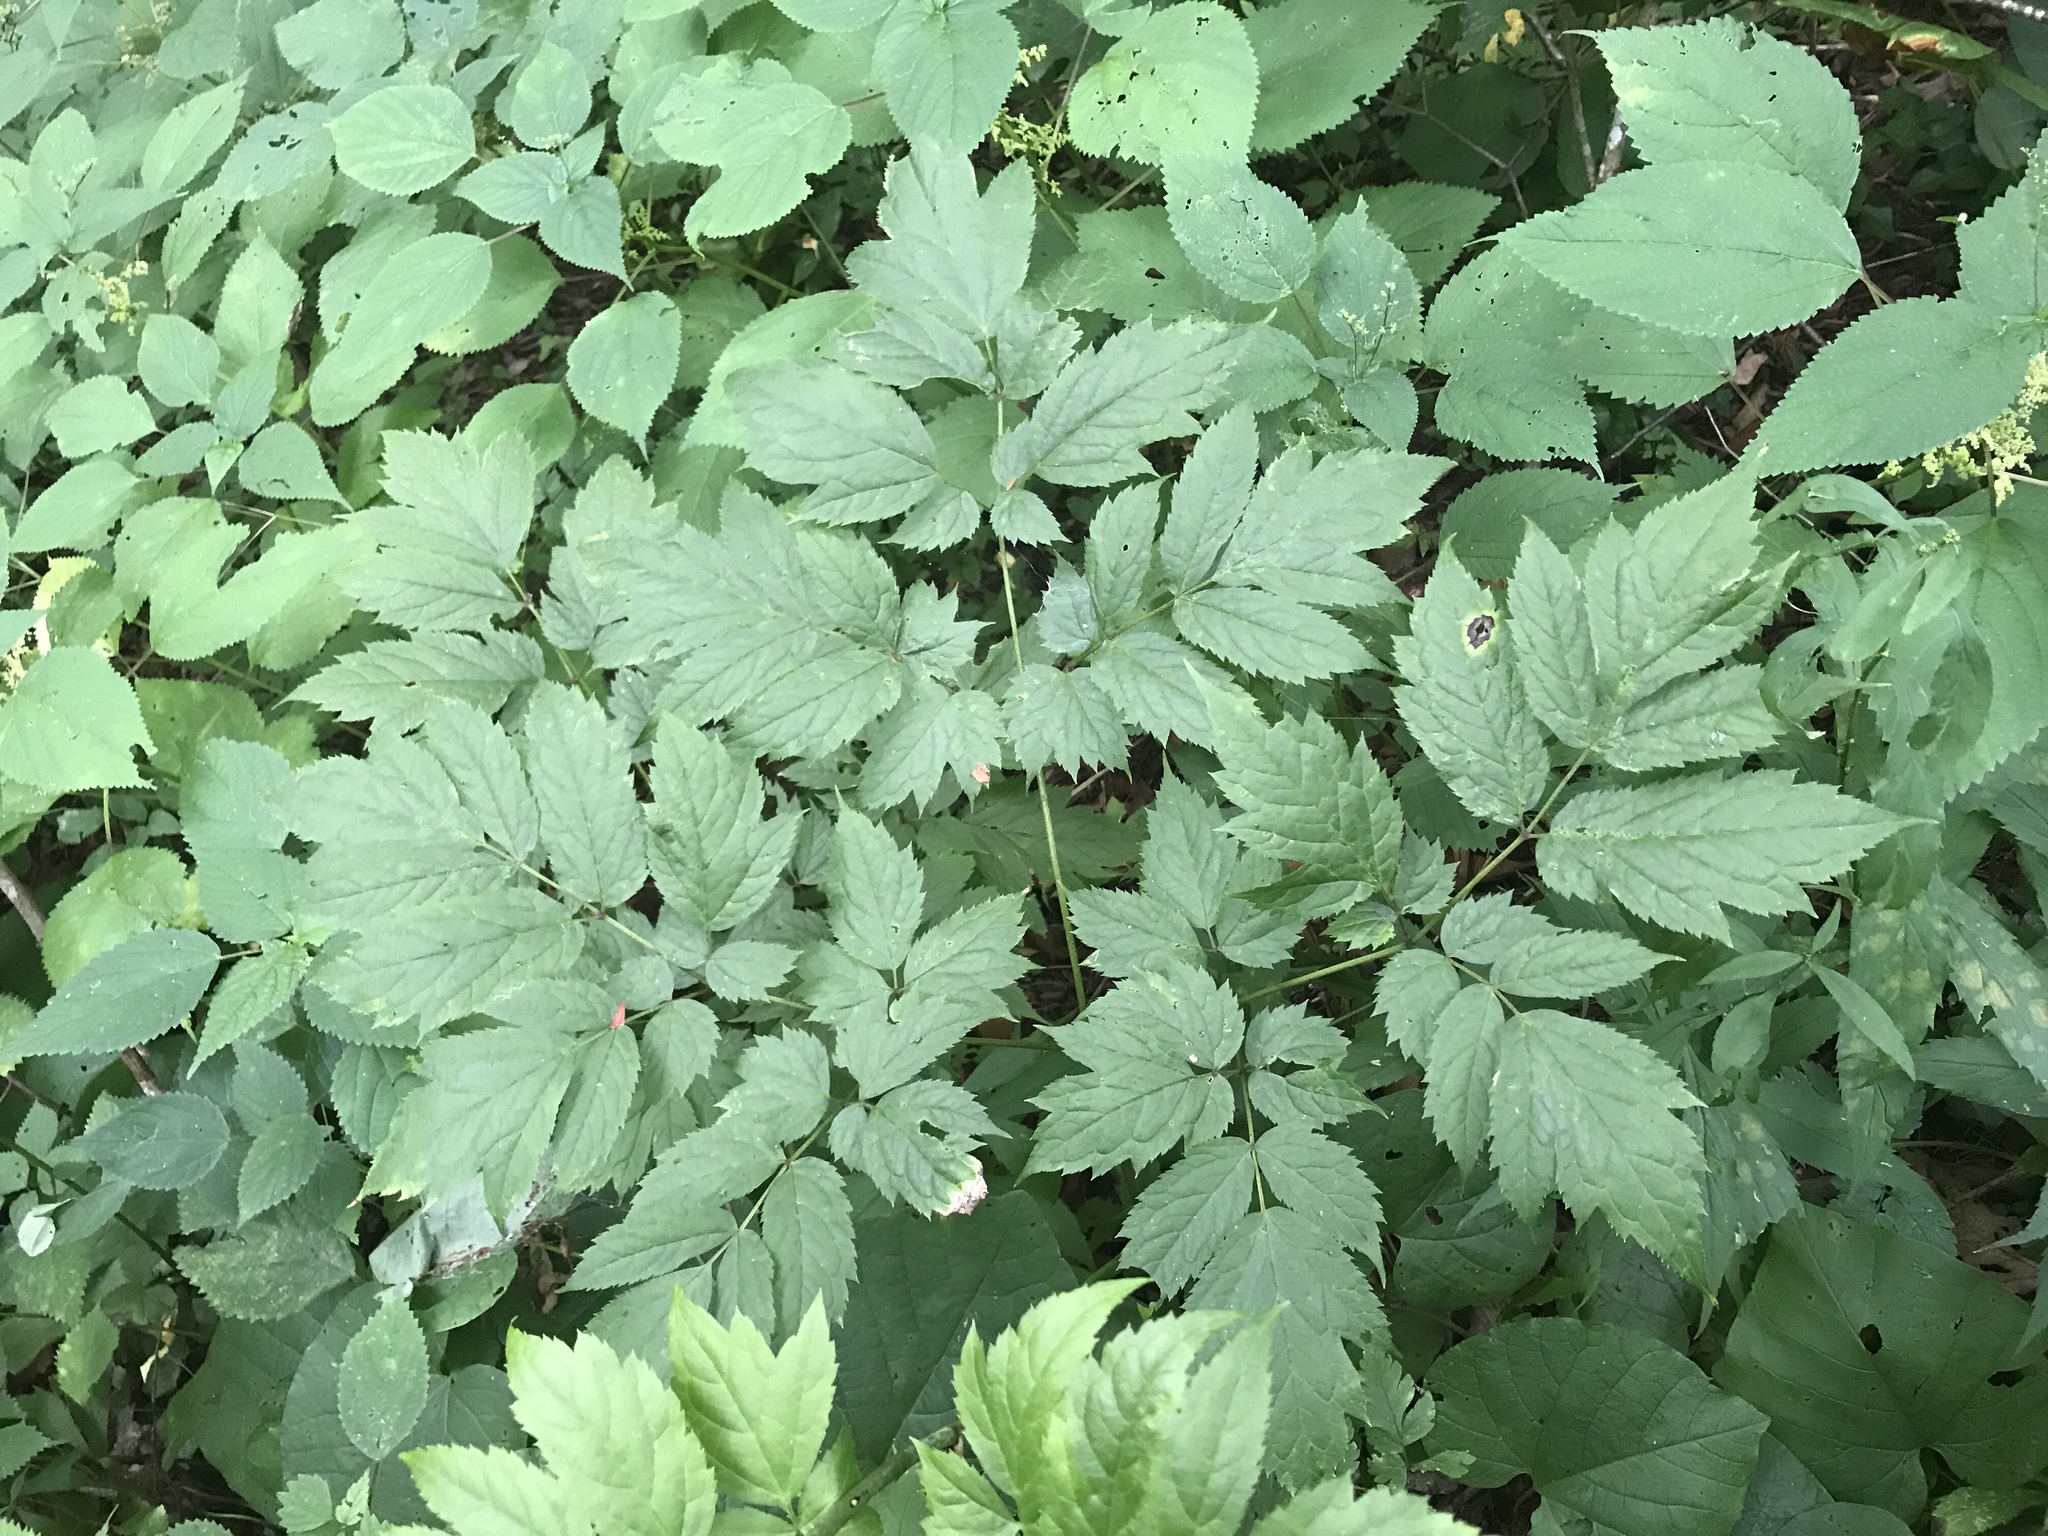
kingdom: Plantae
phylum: Tracheophyta
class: Magnoliopsida
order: Ranunculales
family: Ranunculaceae
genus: Actaea
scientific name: Actaea racemosa
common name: Black cohosh
